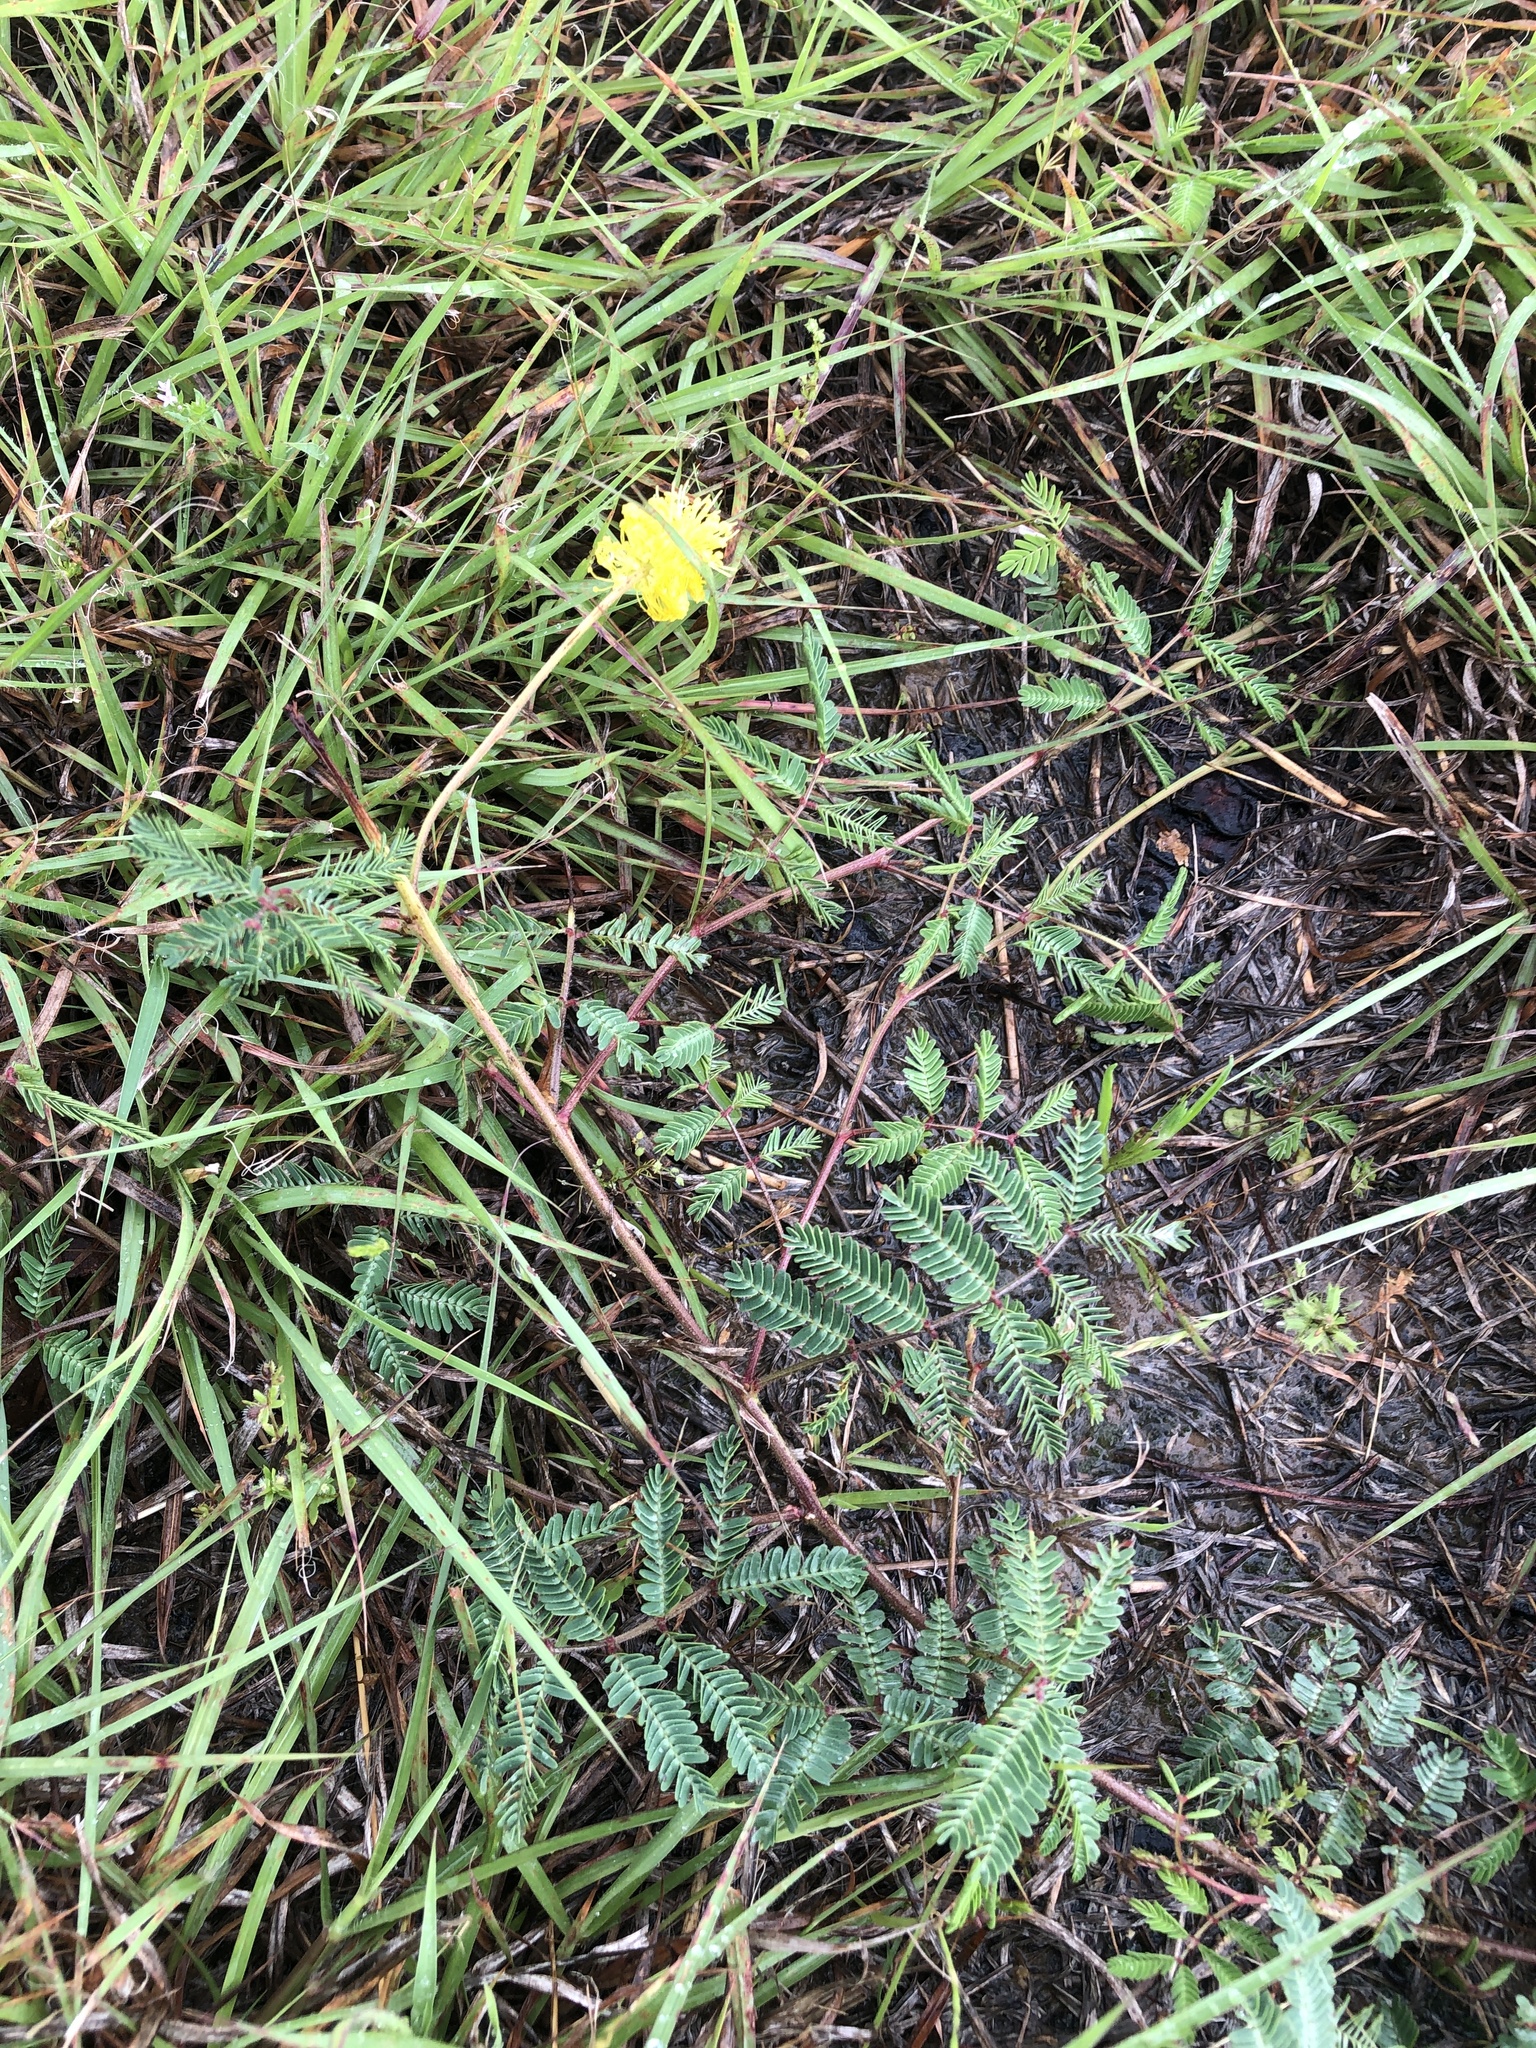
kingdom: Plantae
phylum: Tracheophyta
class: Magnoliopsida
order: Fabales
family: Fabaceae
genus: Neptunia
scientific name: Neptunia lutea
